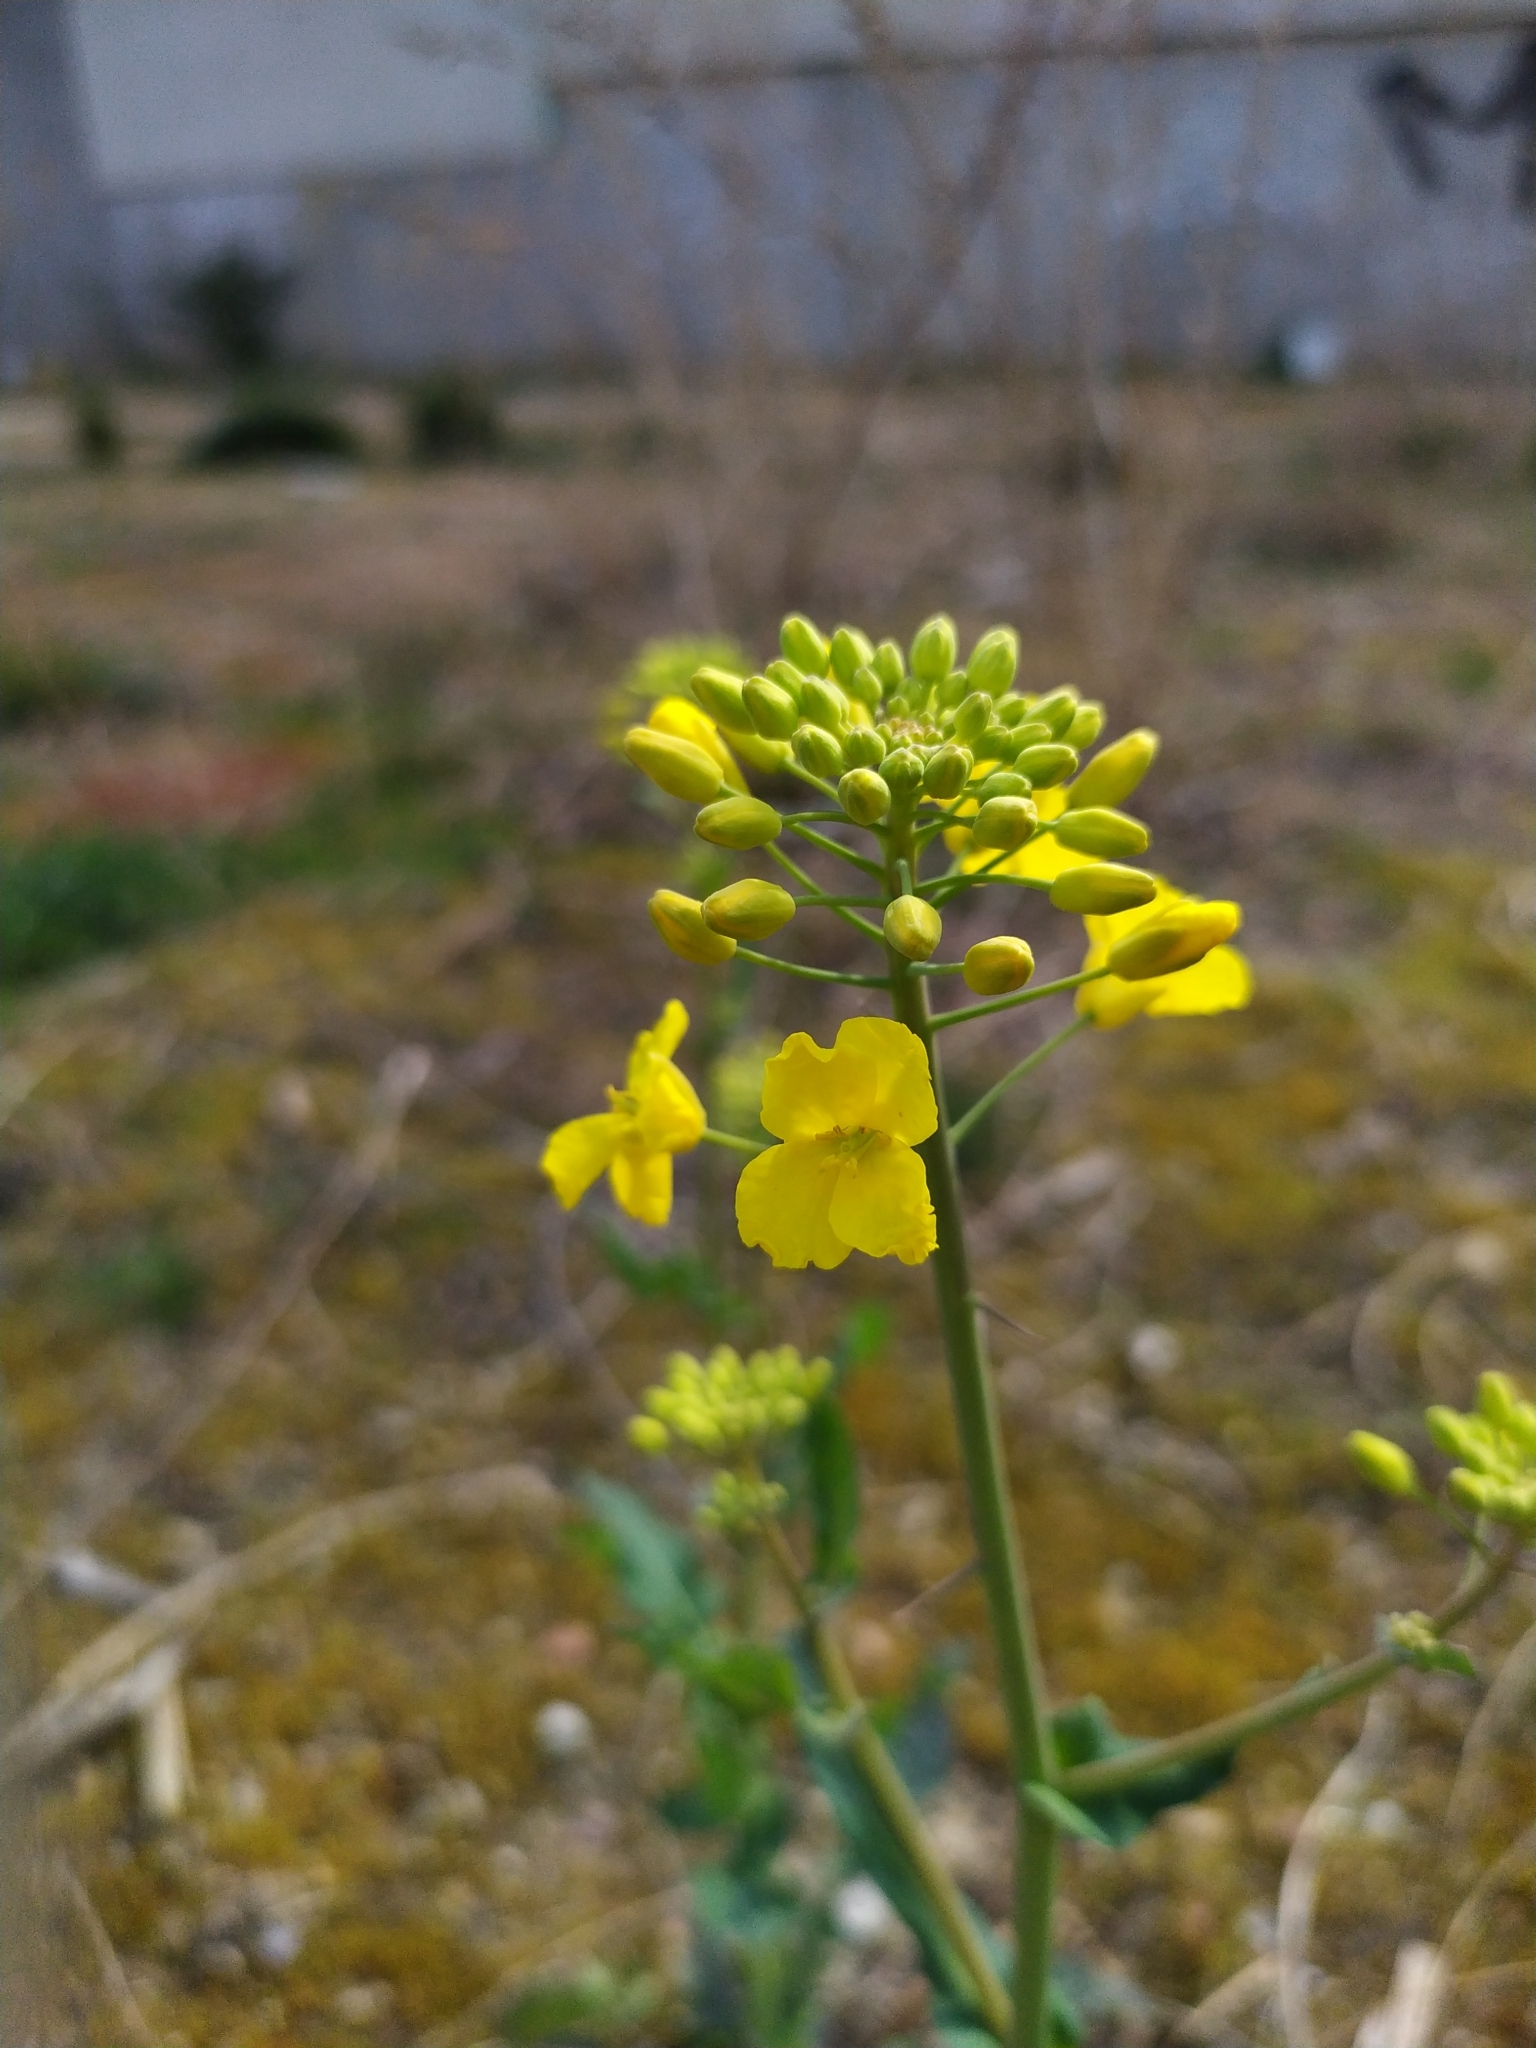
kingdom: Plantae
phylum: Tracheophyta
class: Magnoliopsida
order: Brassicales
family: Brassicaceae
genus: Brassica
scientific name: Brassica napus
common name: Rape
